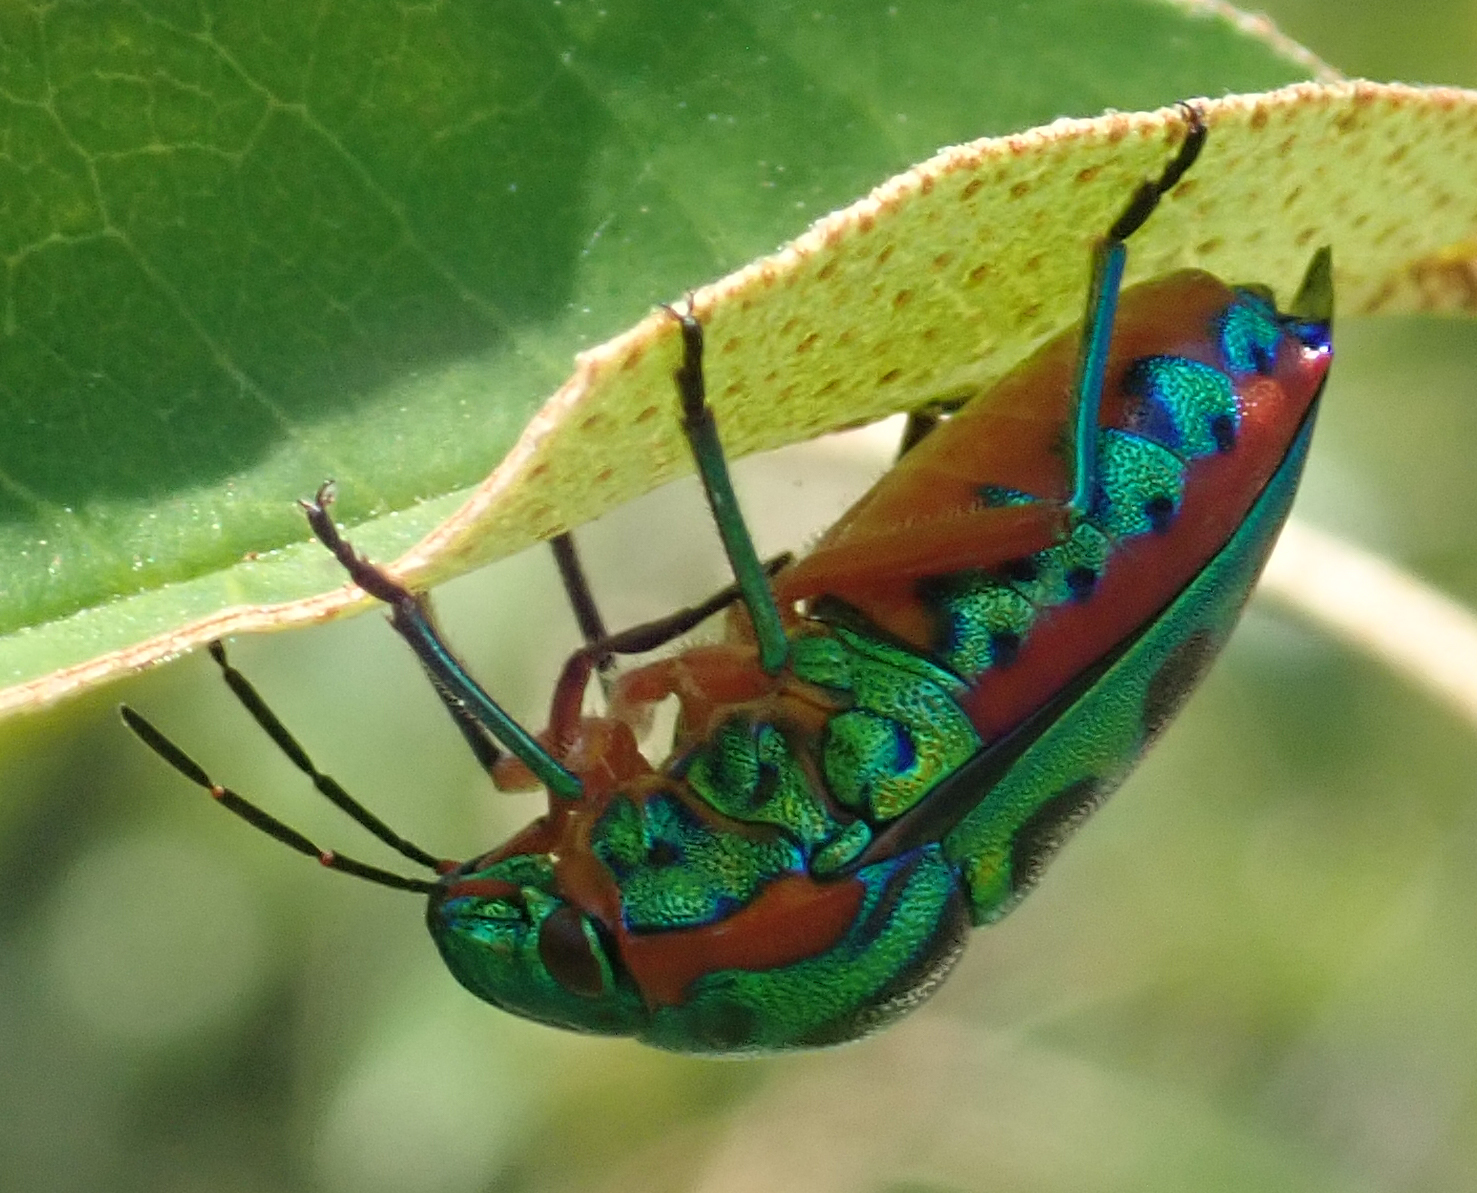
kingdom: Animalia
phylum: Arthropoda
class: Insecta
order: Hemiptera
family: Scutelleridae
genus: Calidea
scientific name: Calidea dregii
